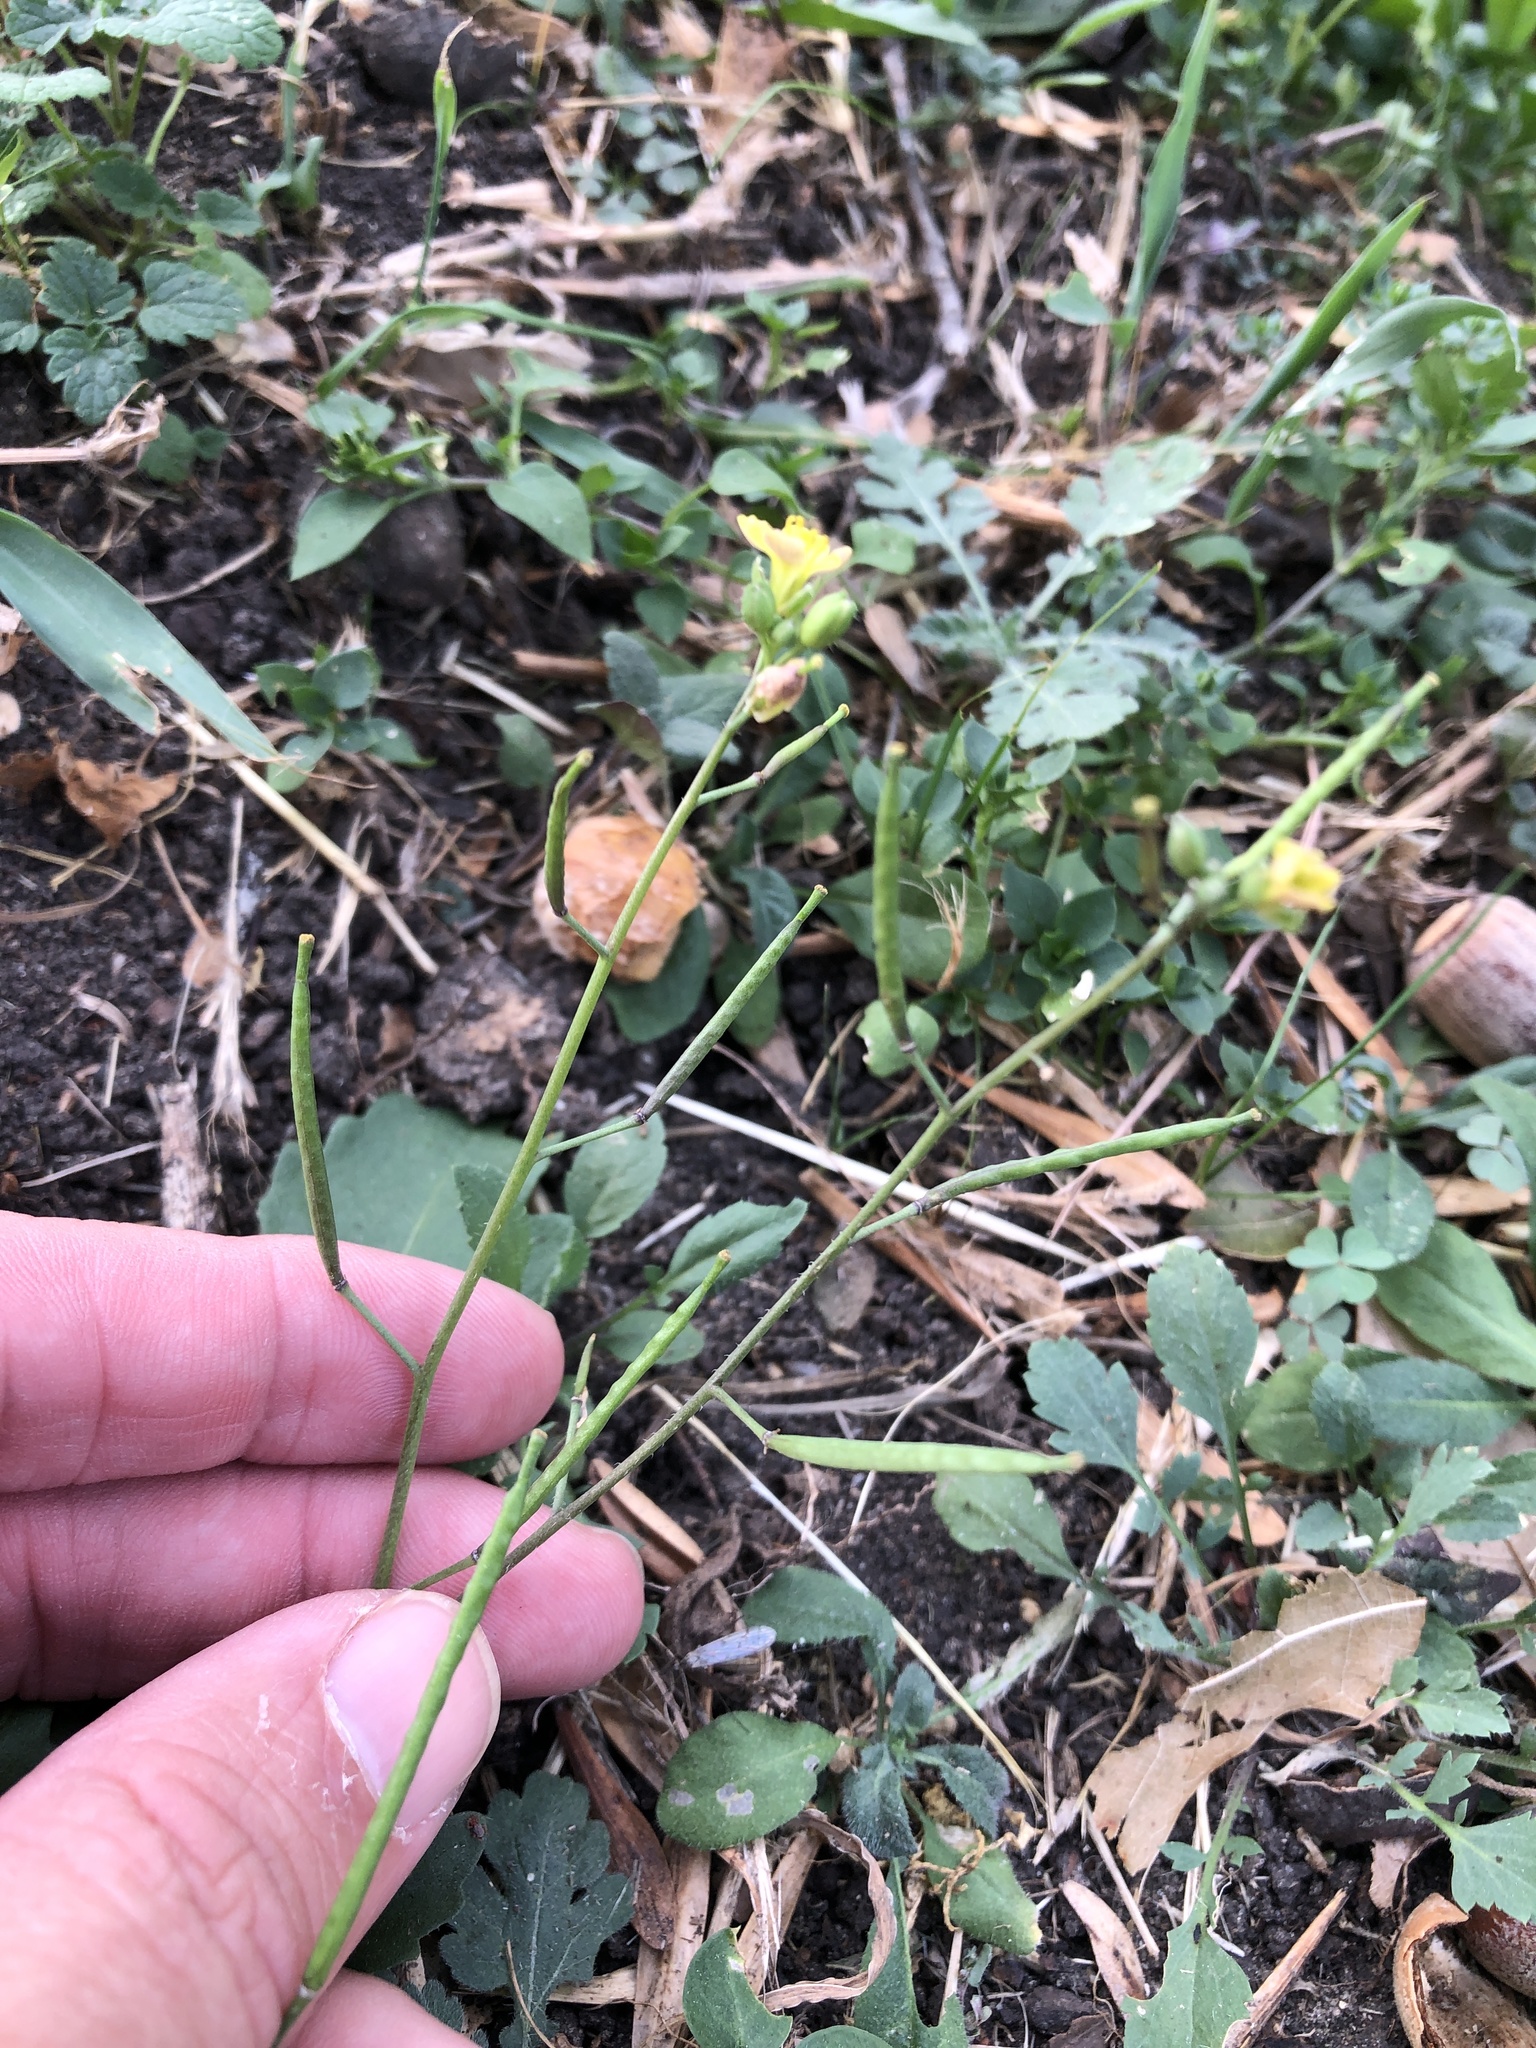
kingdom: Plantae
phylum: Tracheophyta
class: Magnoliopsida
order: Brassicales
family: Brassicaceae
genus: Diplotaxis
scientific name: Diplotaxis muralis
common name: Annual wall-rocket
